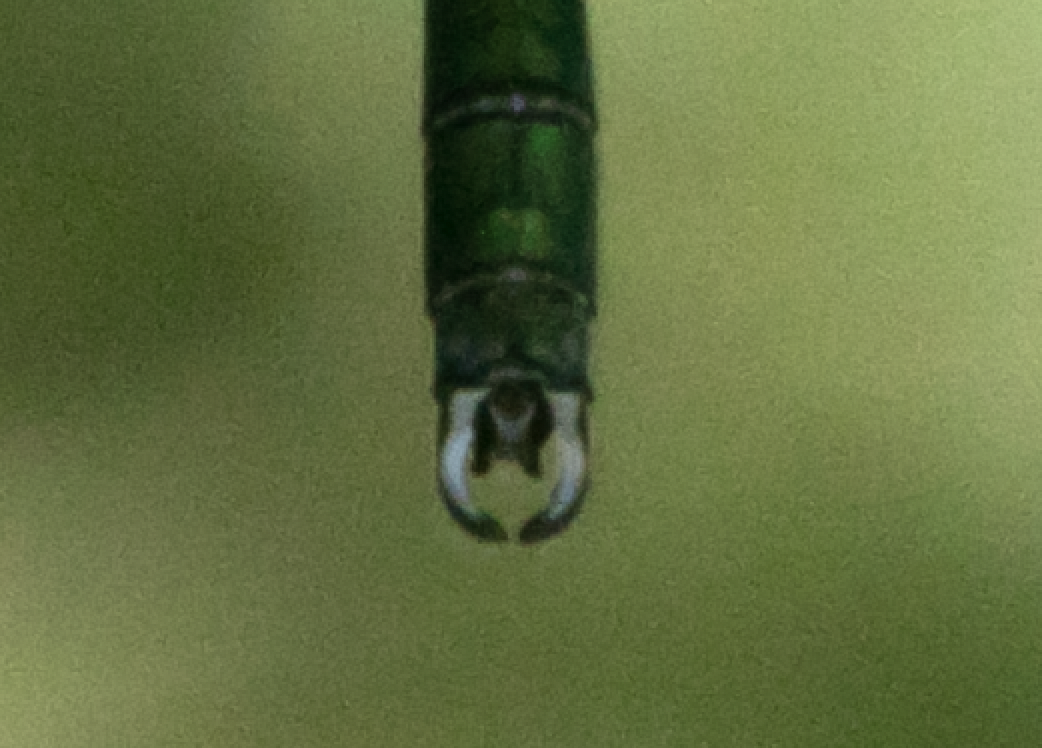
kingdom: Animalia
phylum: Arthropoda
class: Insecta
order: Odonata
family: Lestidae
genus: Chalcolestes
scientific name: Chalcolestes viridis
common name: Green emerald damselfly
